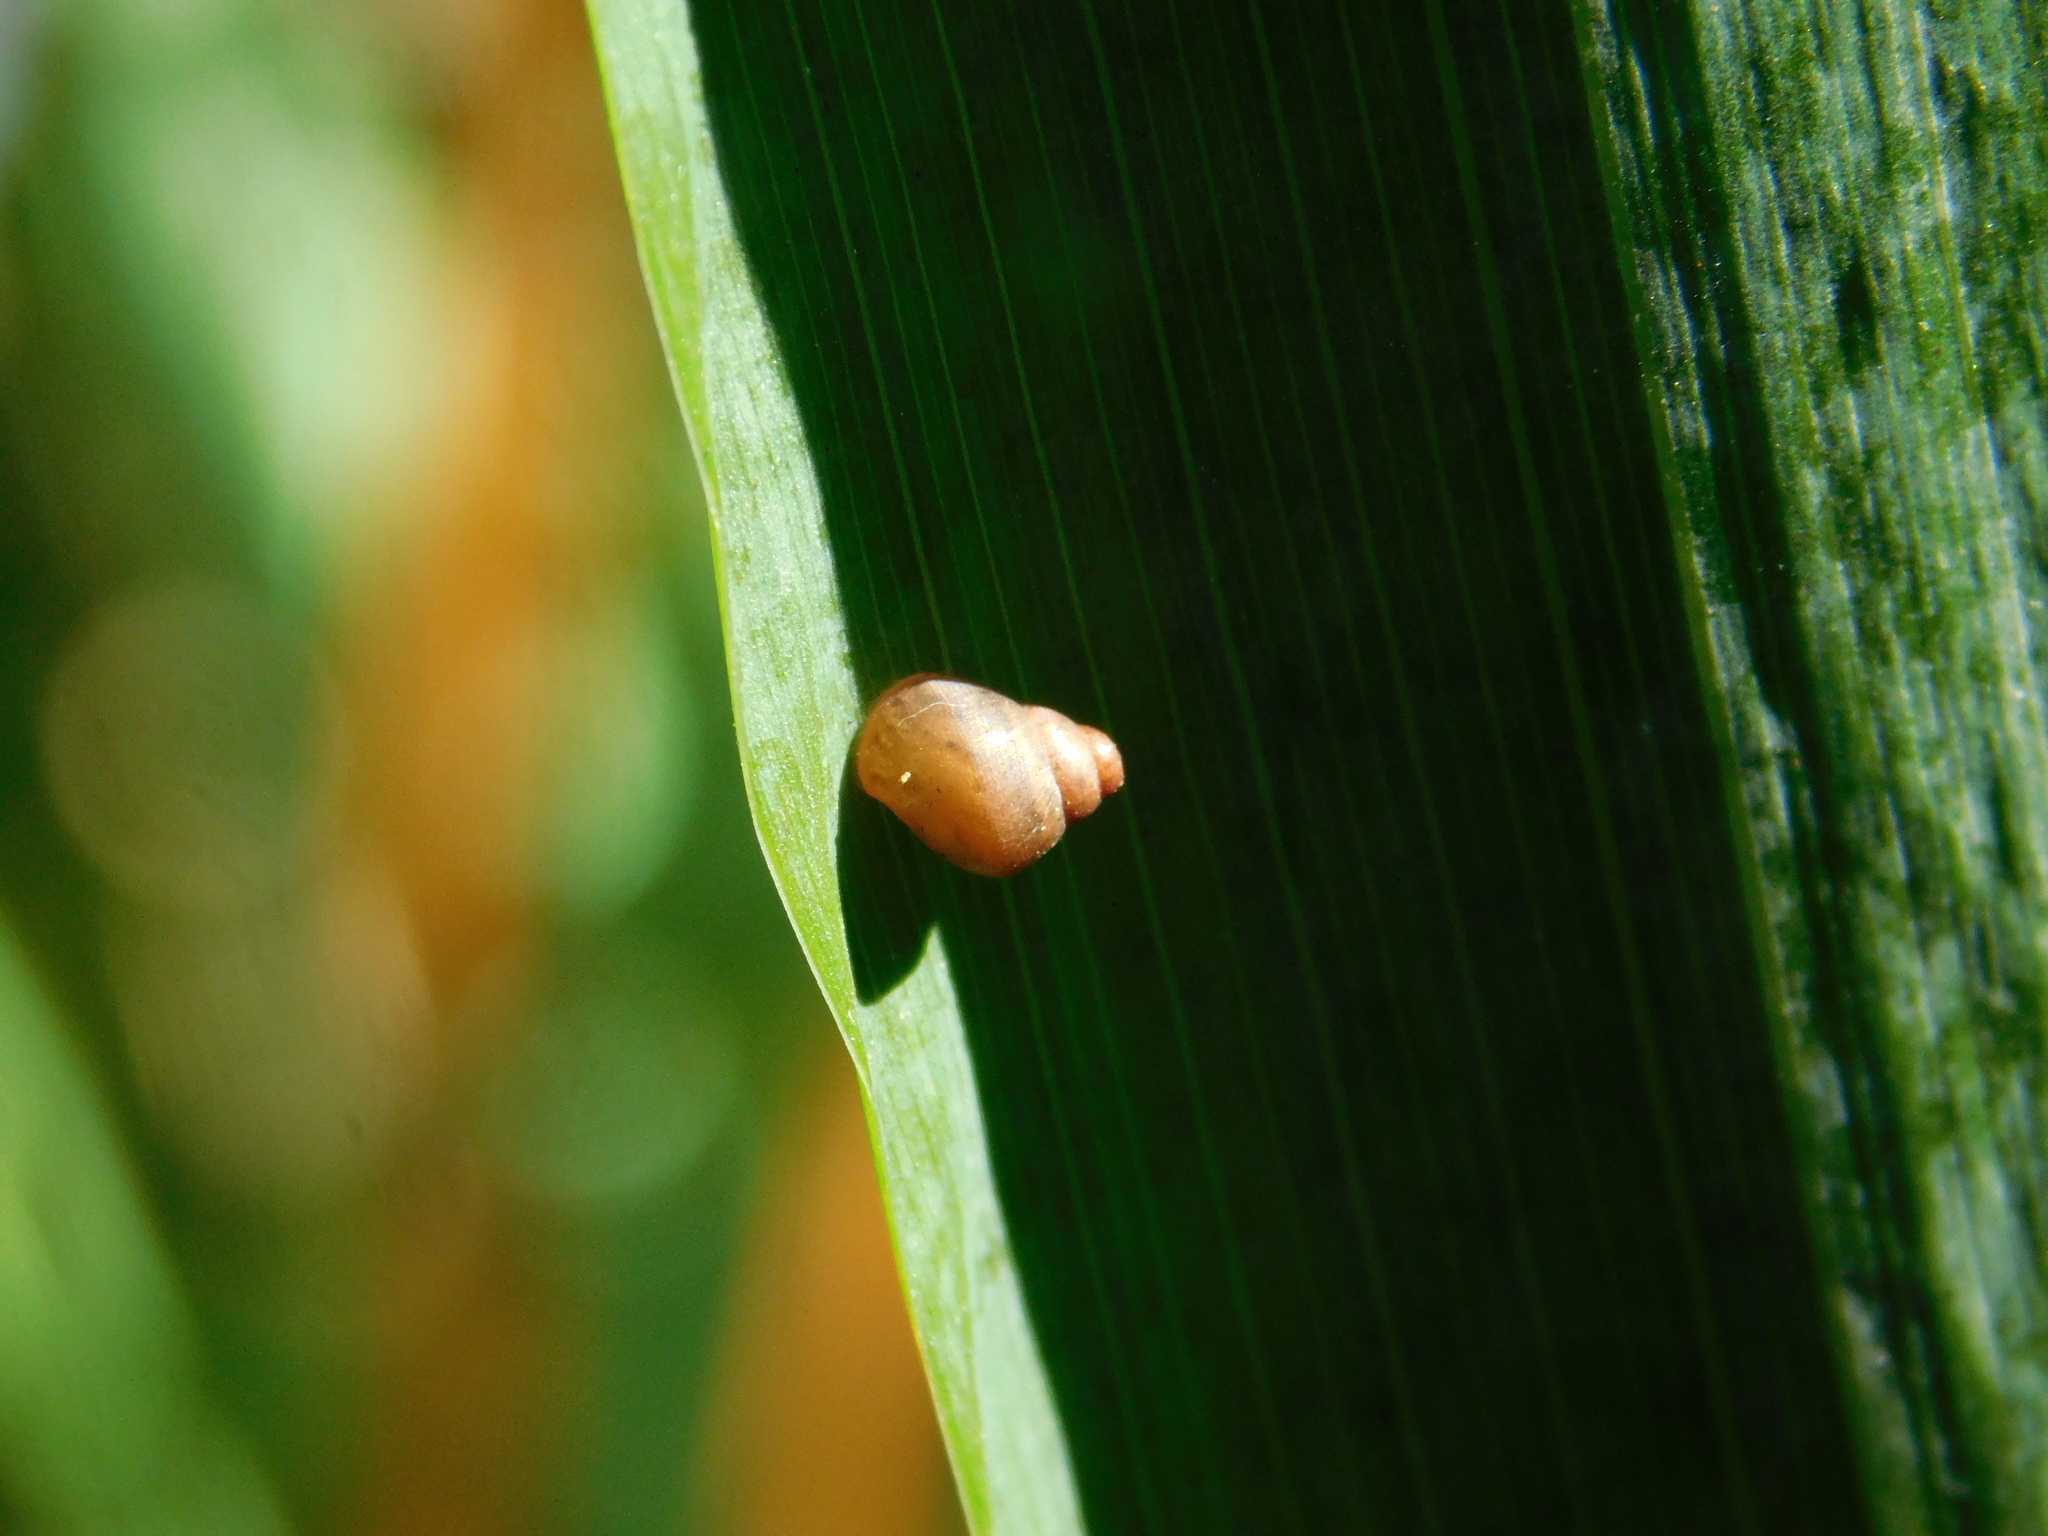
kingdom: Animalia
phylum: Mollusca
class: Gastropoda
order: Stylommatophora
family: Bulimulidae
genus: Bulimulus
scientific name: Bulimulus bonariensis
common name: Snail
